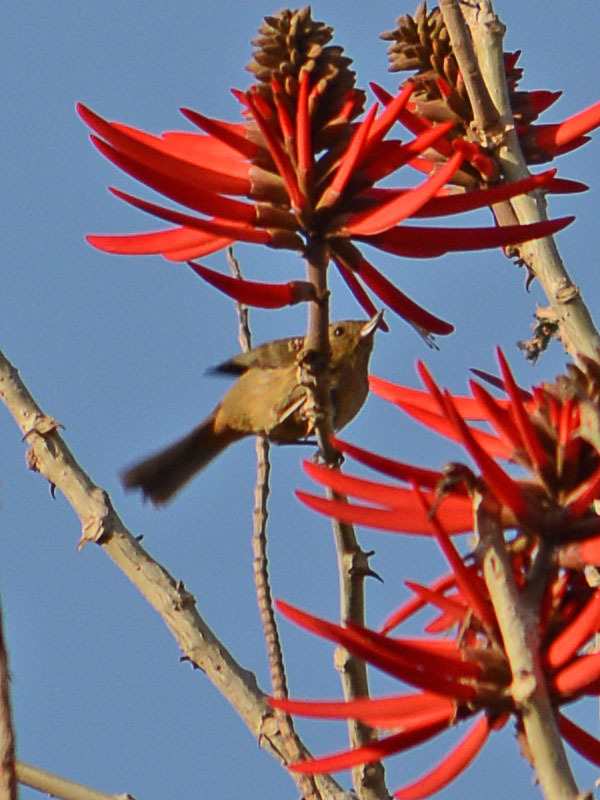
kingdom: Animalia
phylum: Chordata
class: Aves
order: Passeriformes
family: Thraupidae
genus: Diglossa
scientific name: Diglossa baritula
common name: Cinnamon-bellied flowerpiercer
